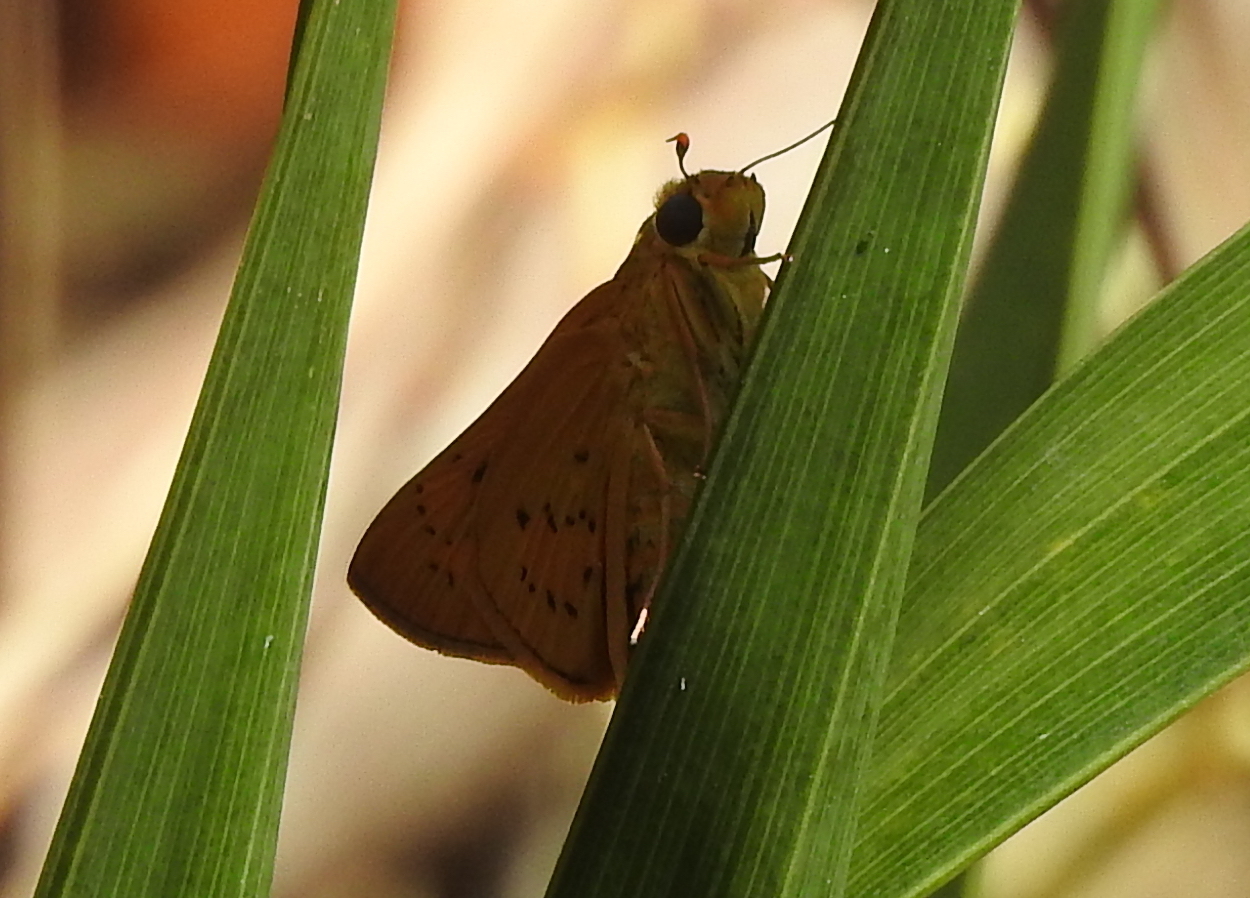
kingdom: Animalia
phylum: Arthropoda
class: Insecta
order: Lepidoptera
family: Hesperiidae
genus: Cephrenes
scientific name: Cephrenes trichopepla
